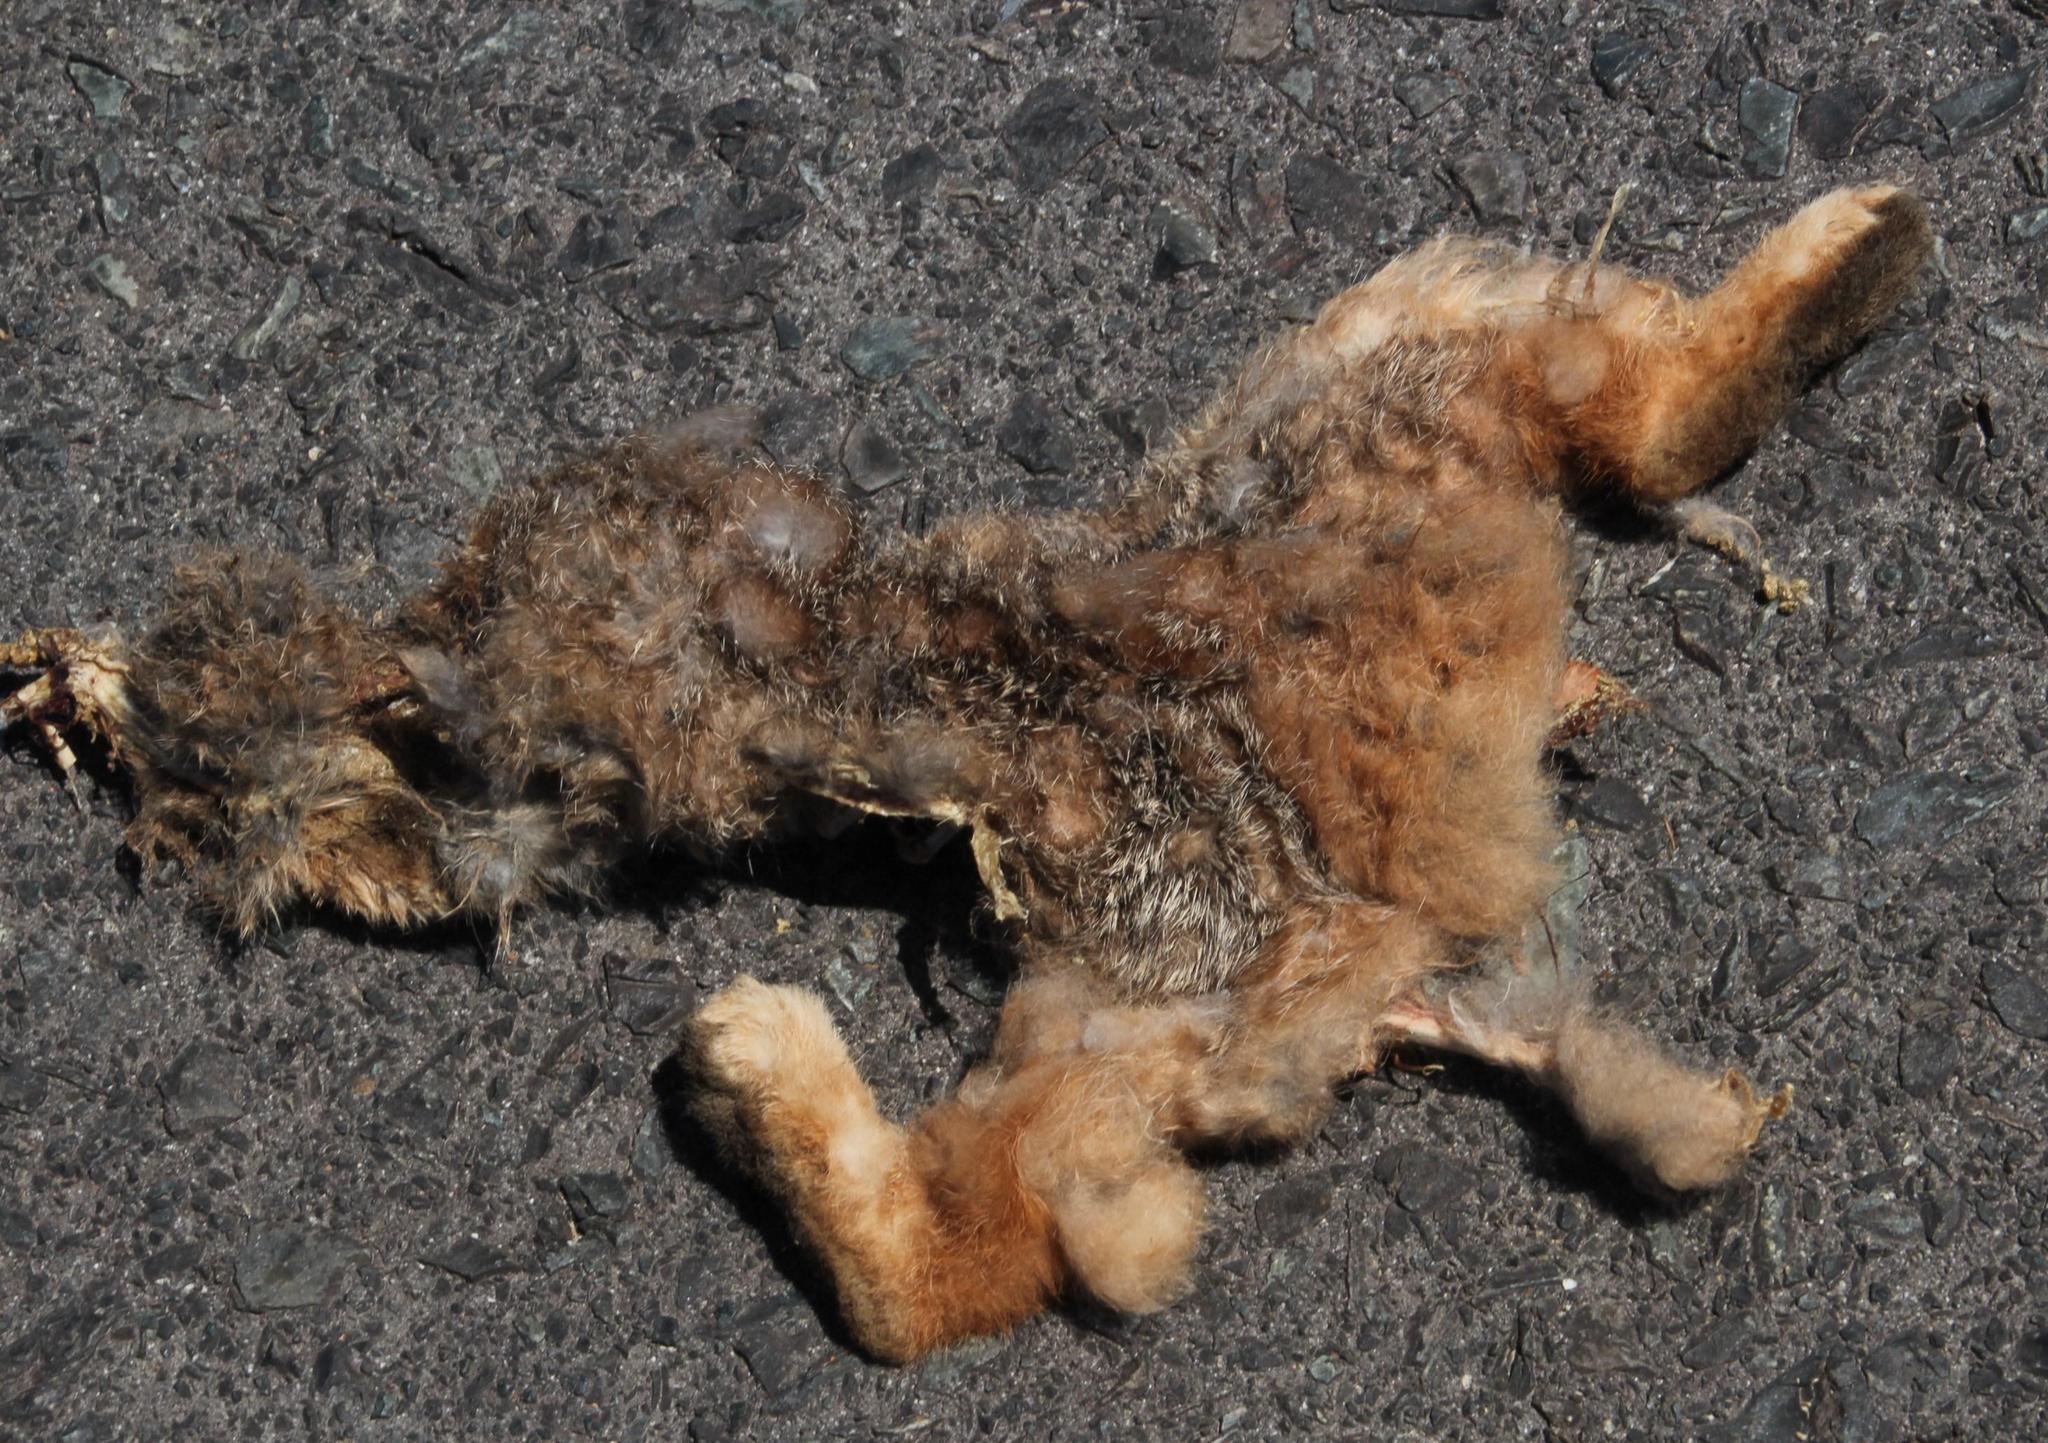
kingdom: Animalia
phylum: Chordata
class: Mammalia
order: Lagomorpha
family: Leporidae
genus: Pronolagus
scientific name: Pronolagus saundersiae
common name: Hewitt's red rock hare
